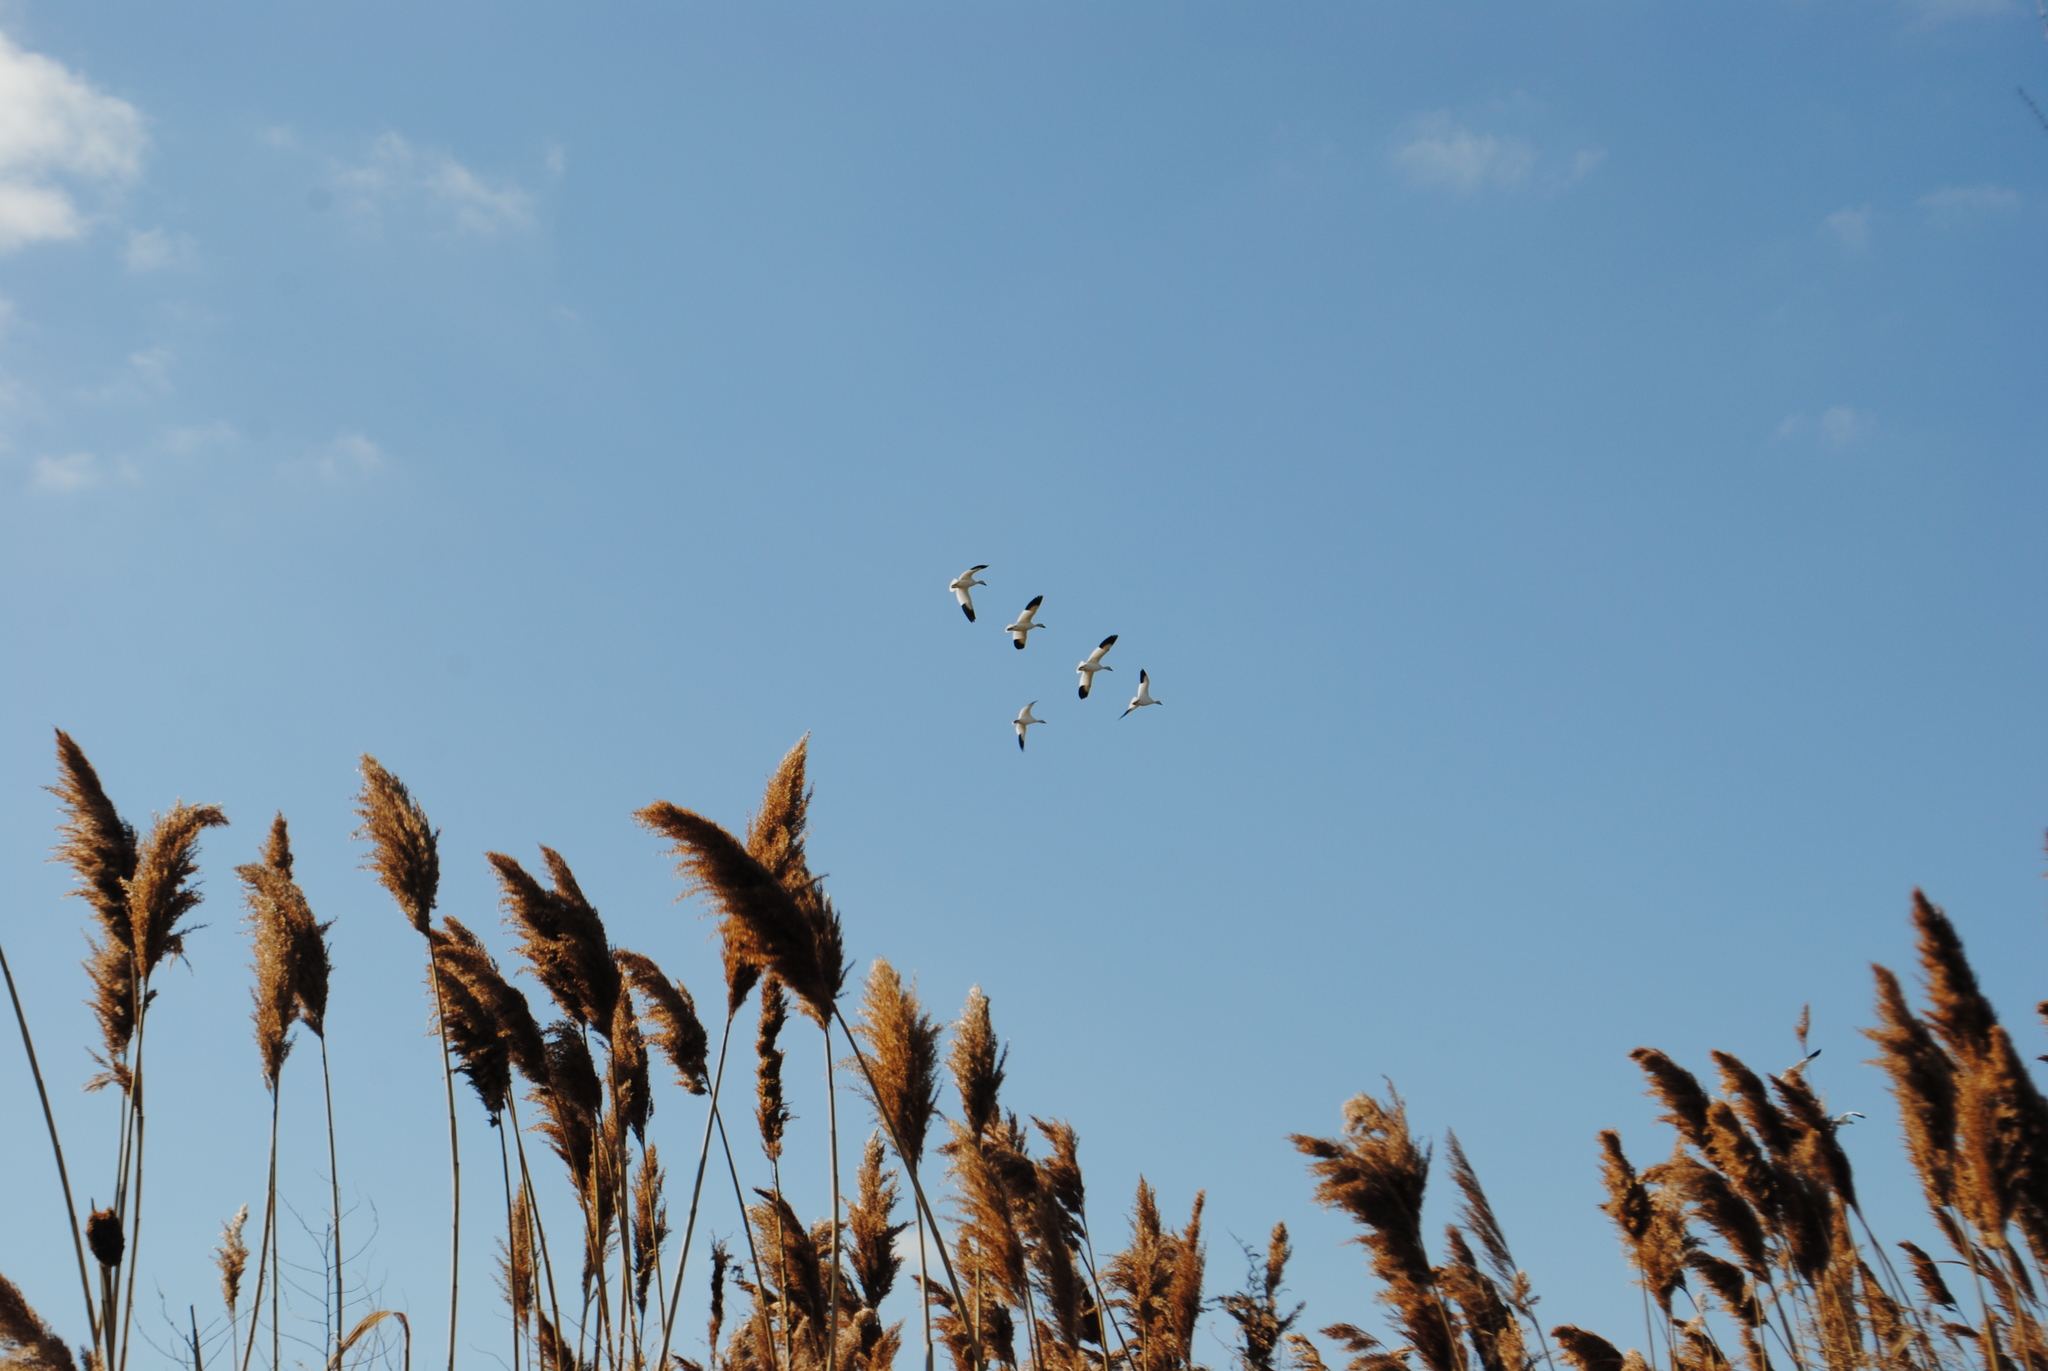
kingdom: Animalia
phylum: Chordata
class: Aves
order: Anseriformes
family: Anatidae
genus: Anser
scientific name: Anser caerulescens
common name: Snow goose
